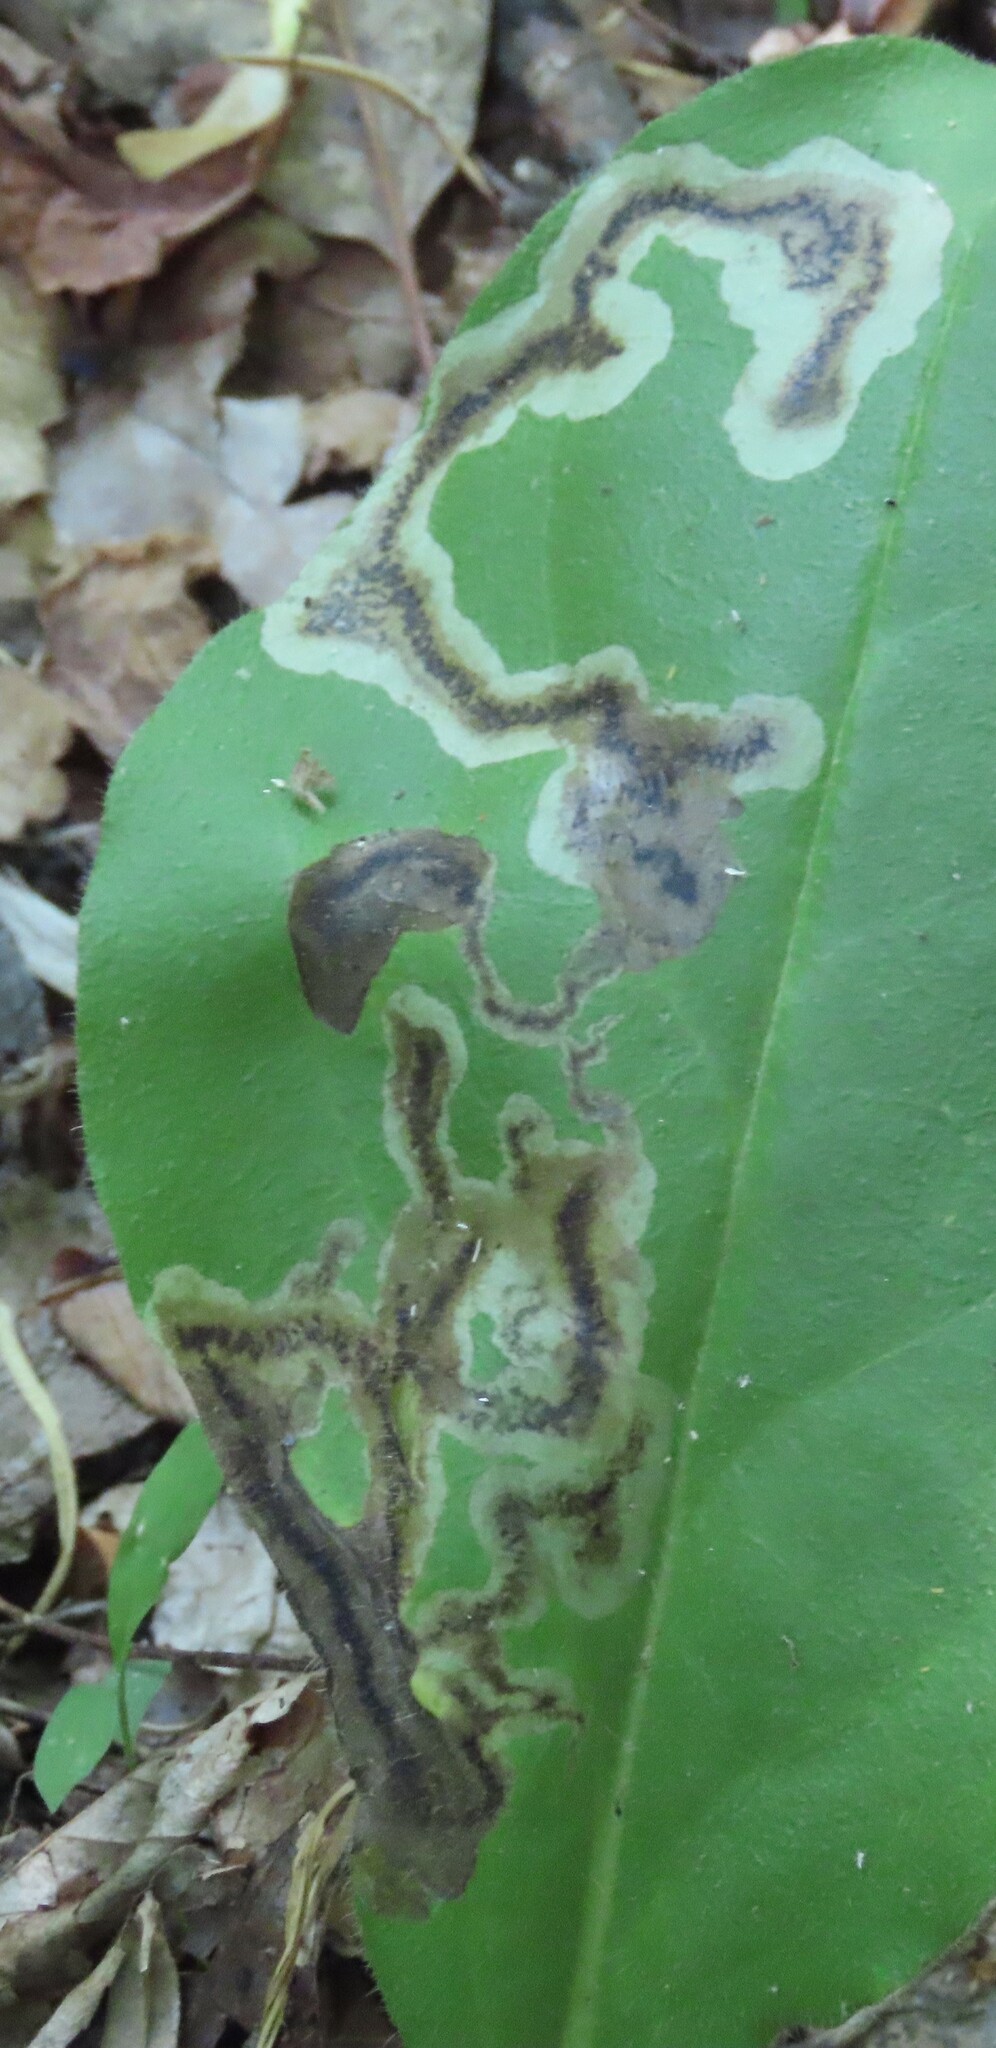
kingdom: Animalia
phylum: Arthropoda
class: Insecta
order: Coleoptera
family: Chrysomelidae
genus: Dibolia
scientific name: Dibolia borealis
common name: Northern plantain flea beetle
